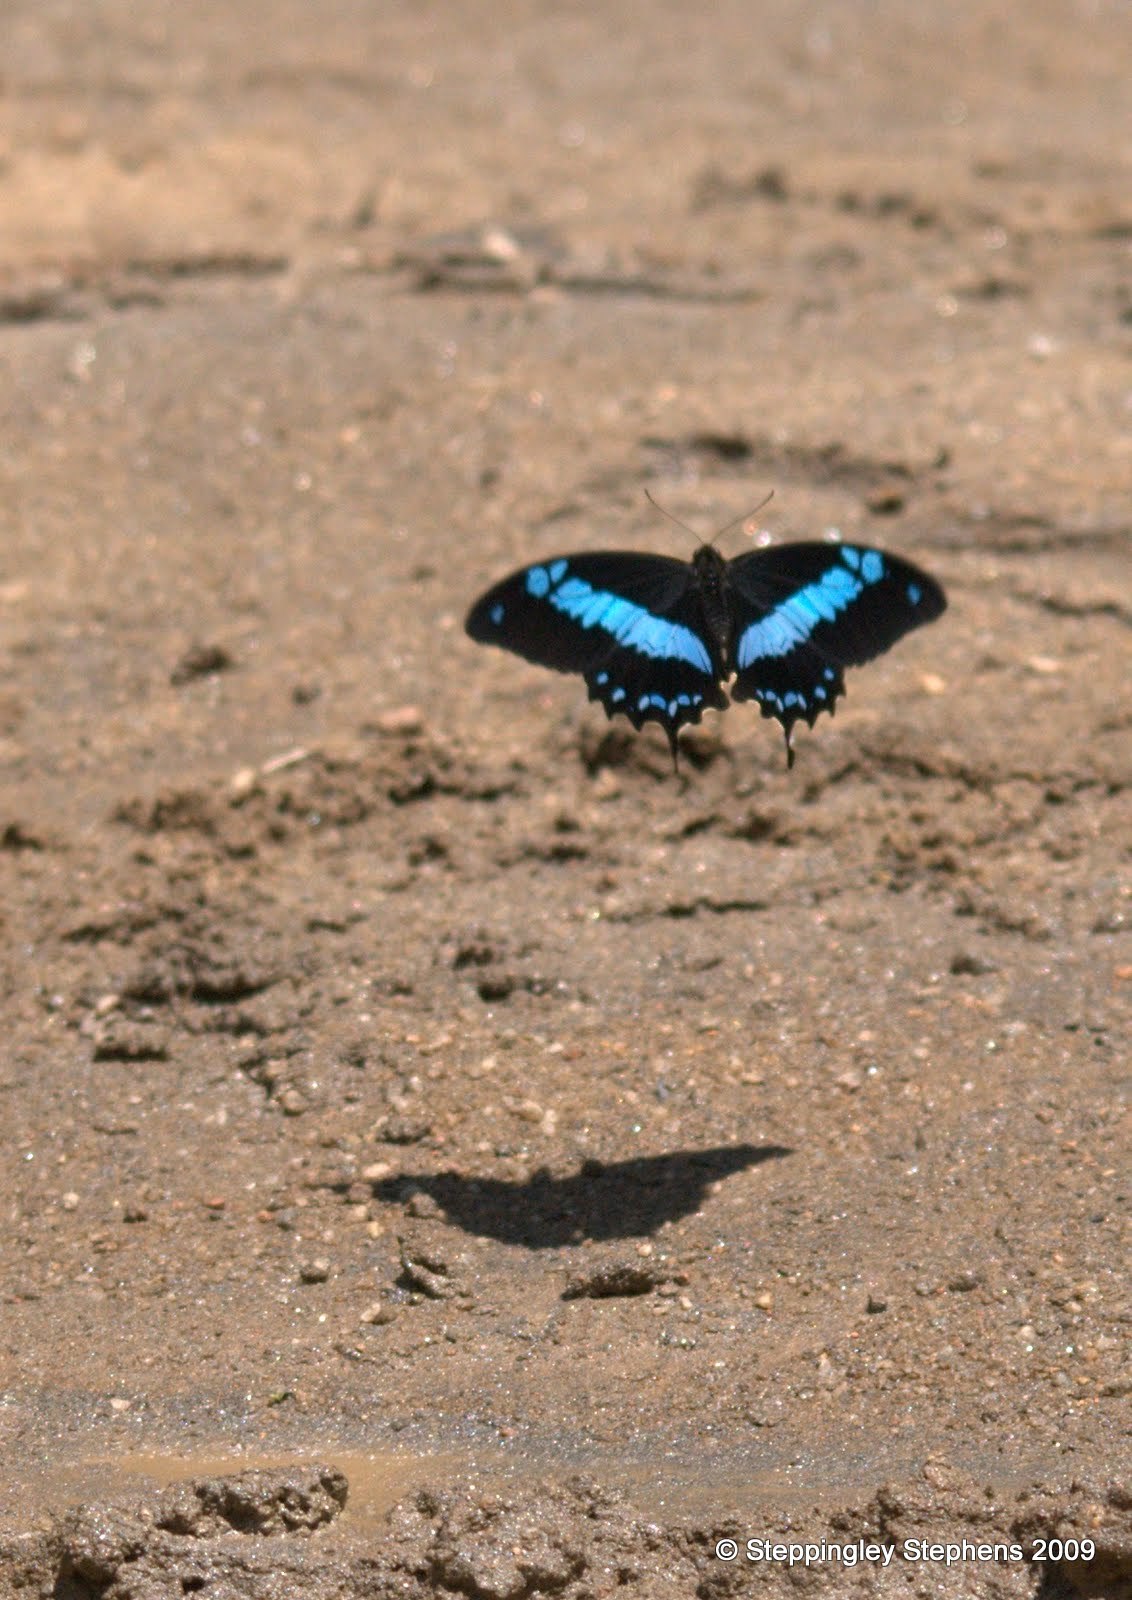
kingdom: Animalia
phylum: Arthropoda
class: Insecta
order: Lepidoptera
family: Papilionidae
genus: Papilio
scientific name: Papilio oribazus
